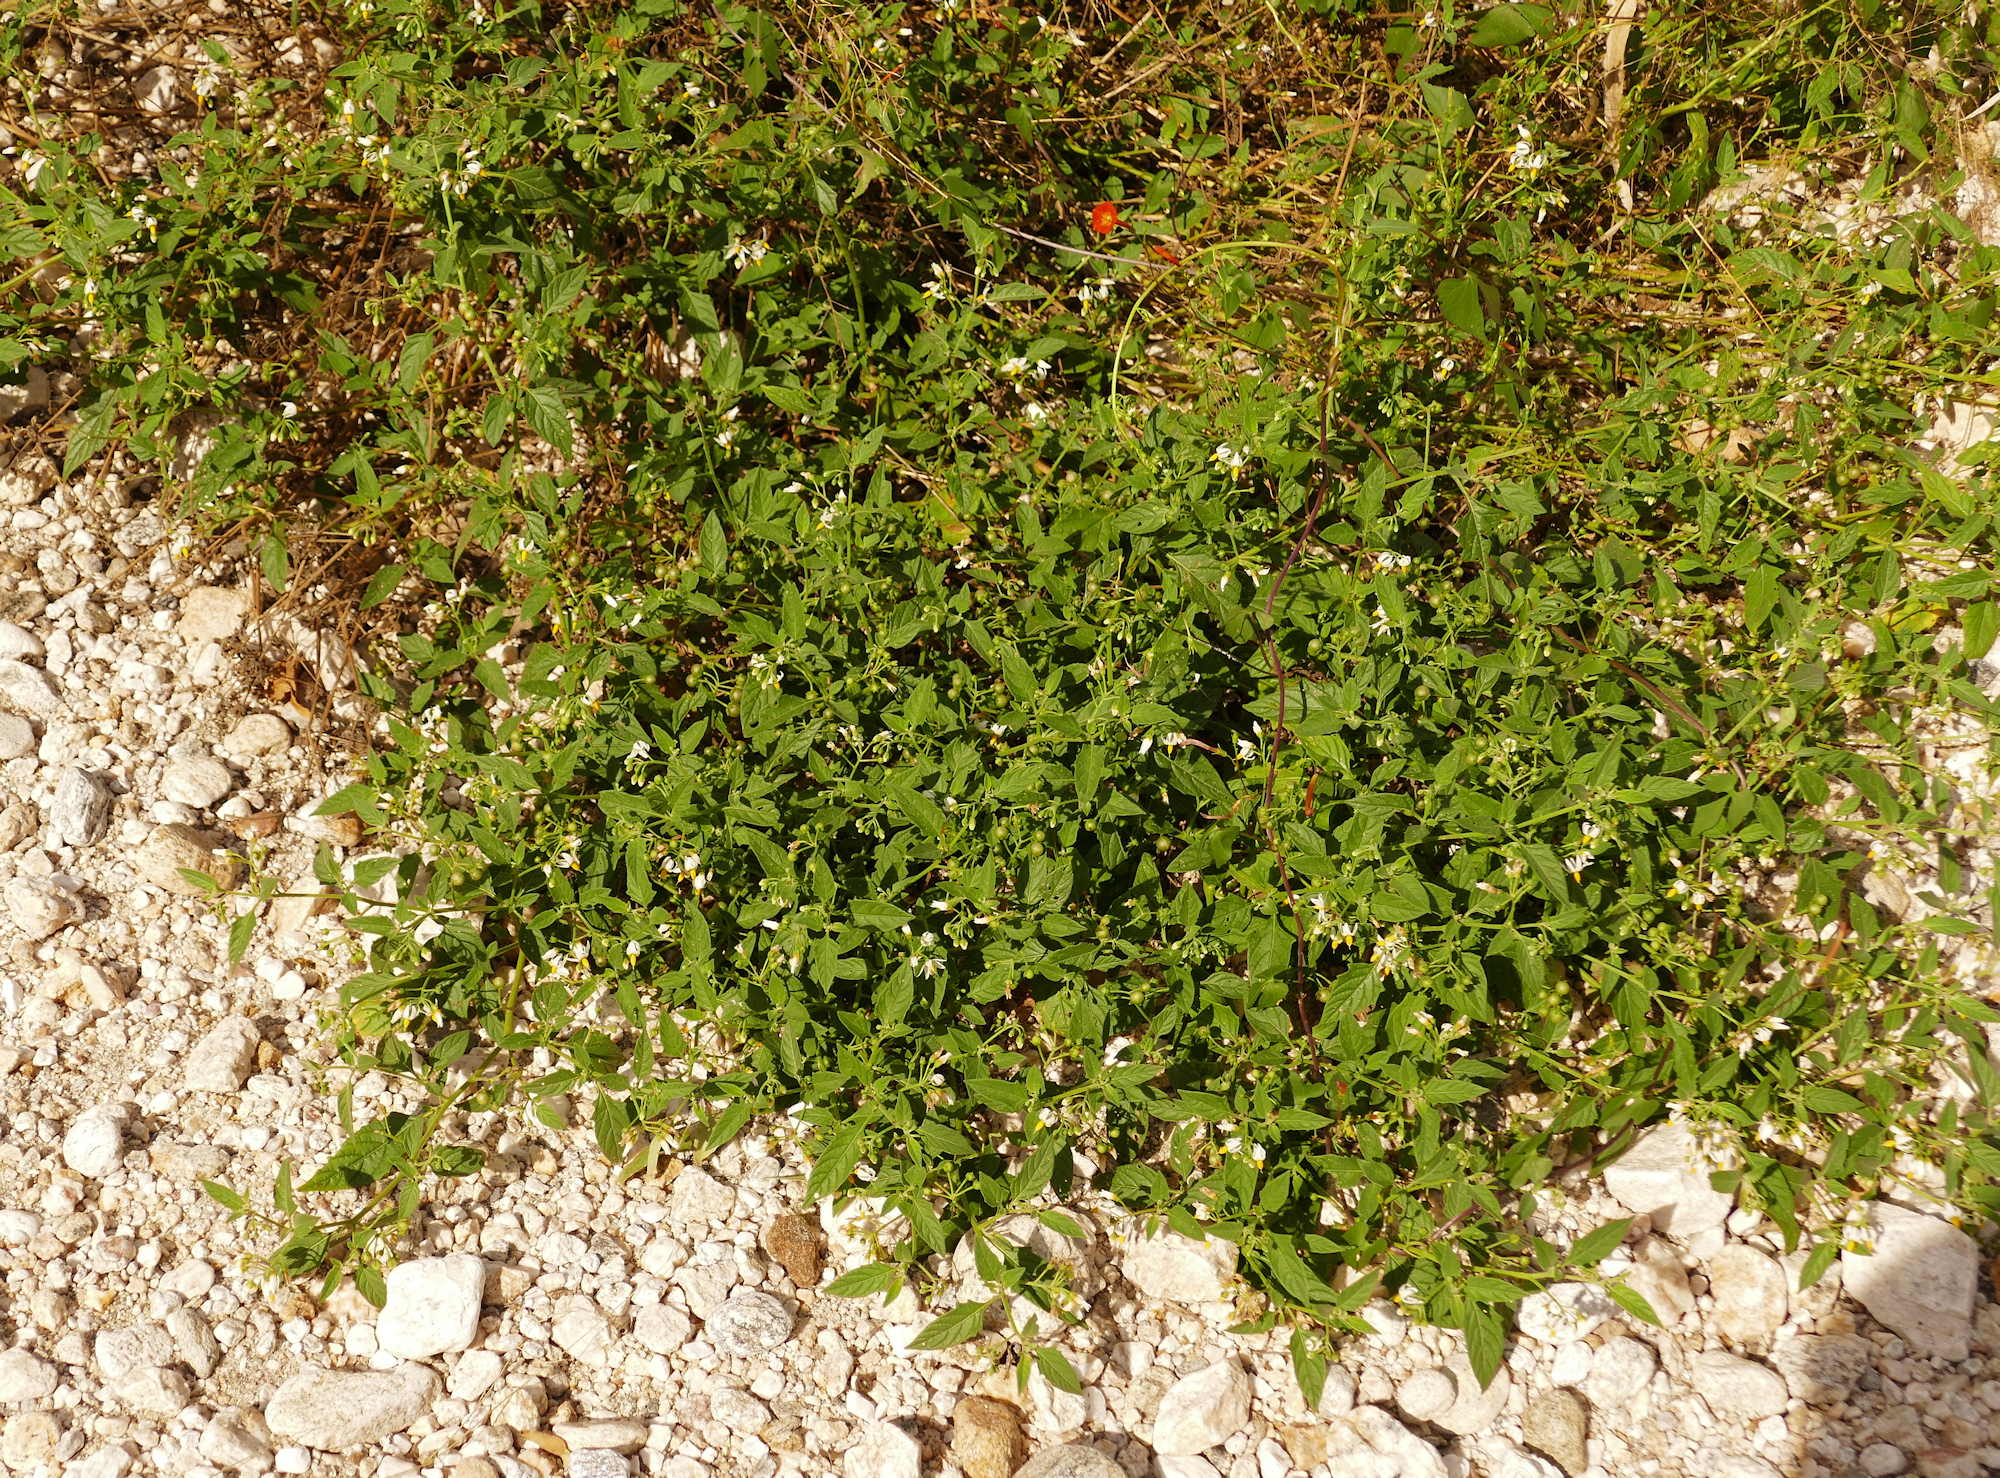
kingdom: Plantae
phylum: Tracheophyta
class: Magnoliopsida
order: Solanales
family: Solanaceae
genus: Solanum
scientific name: Solanum douglasii
